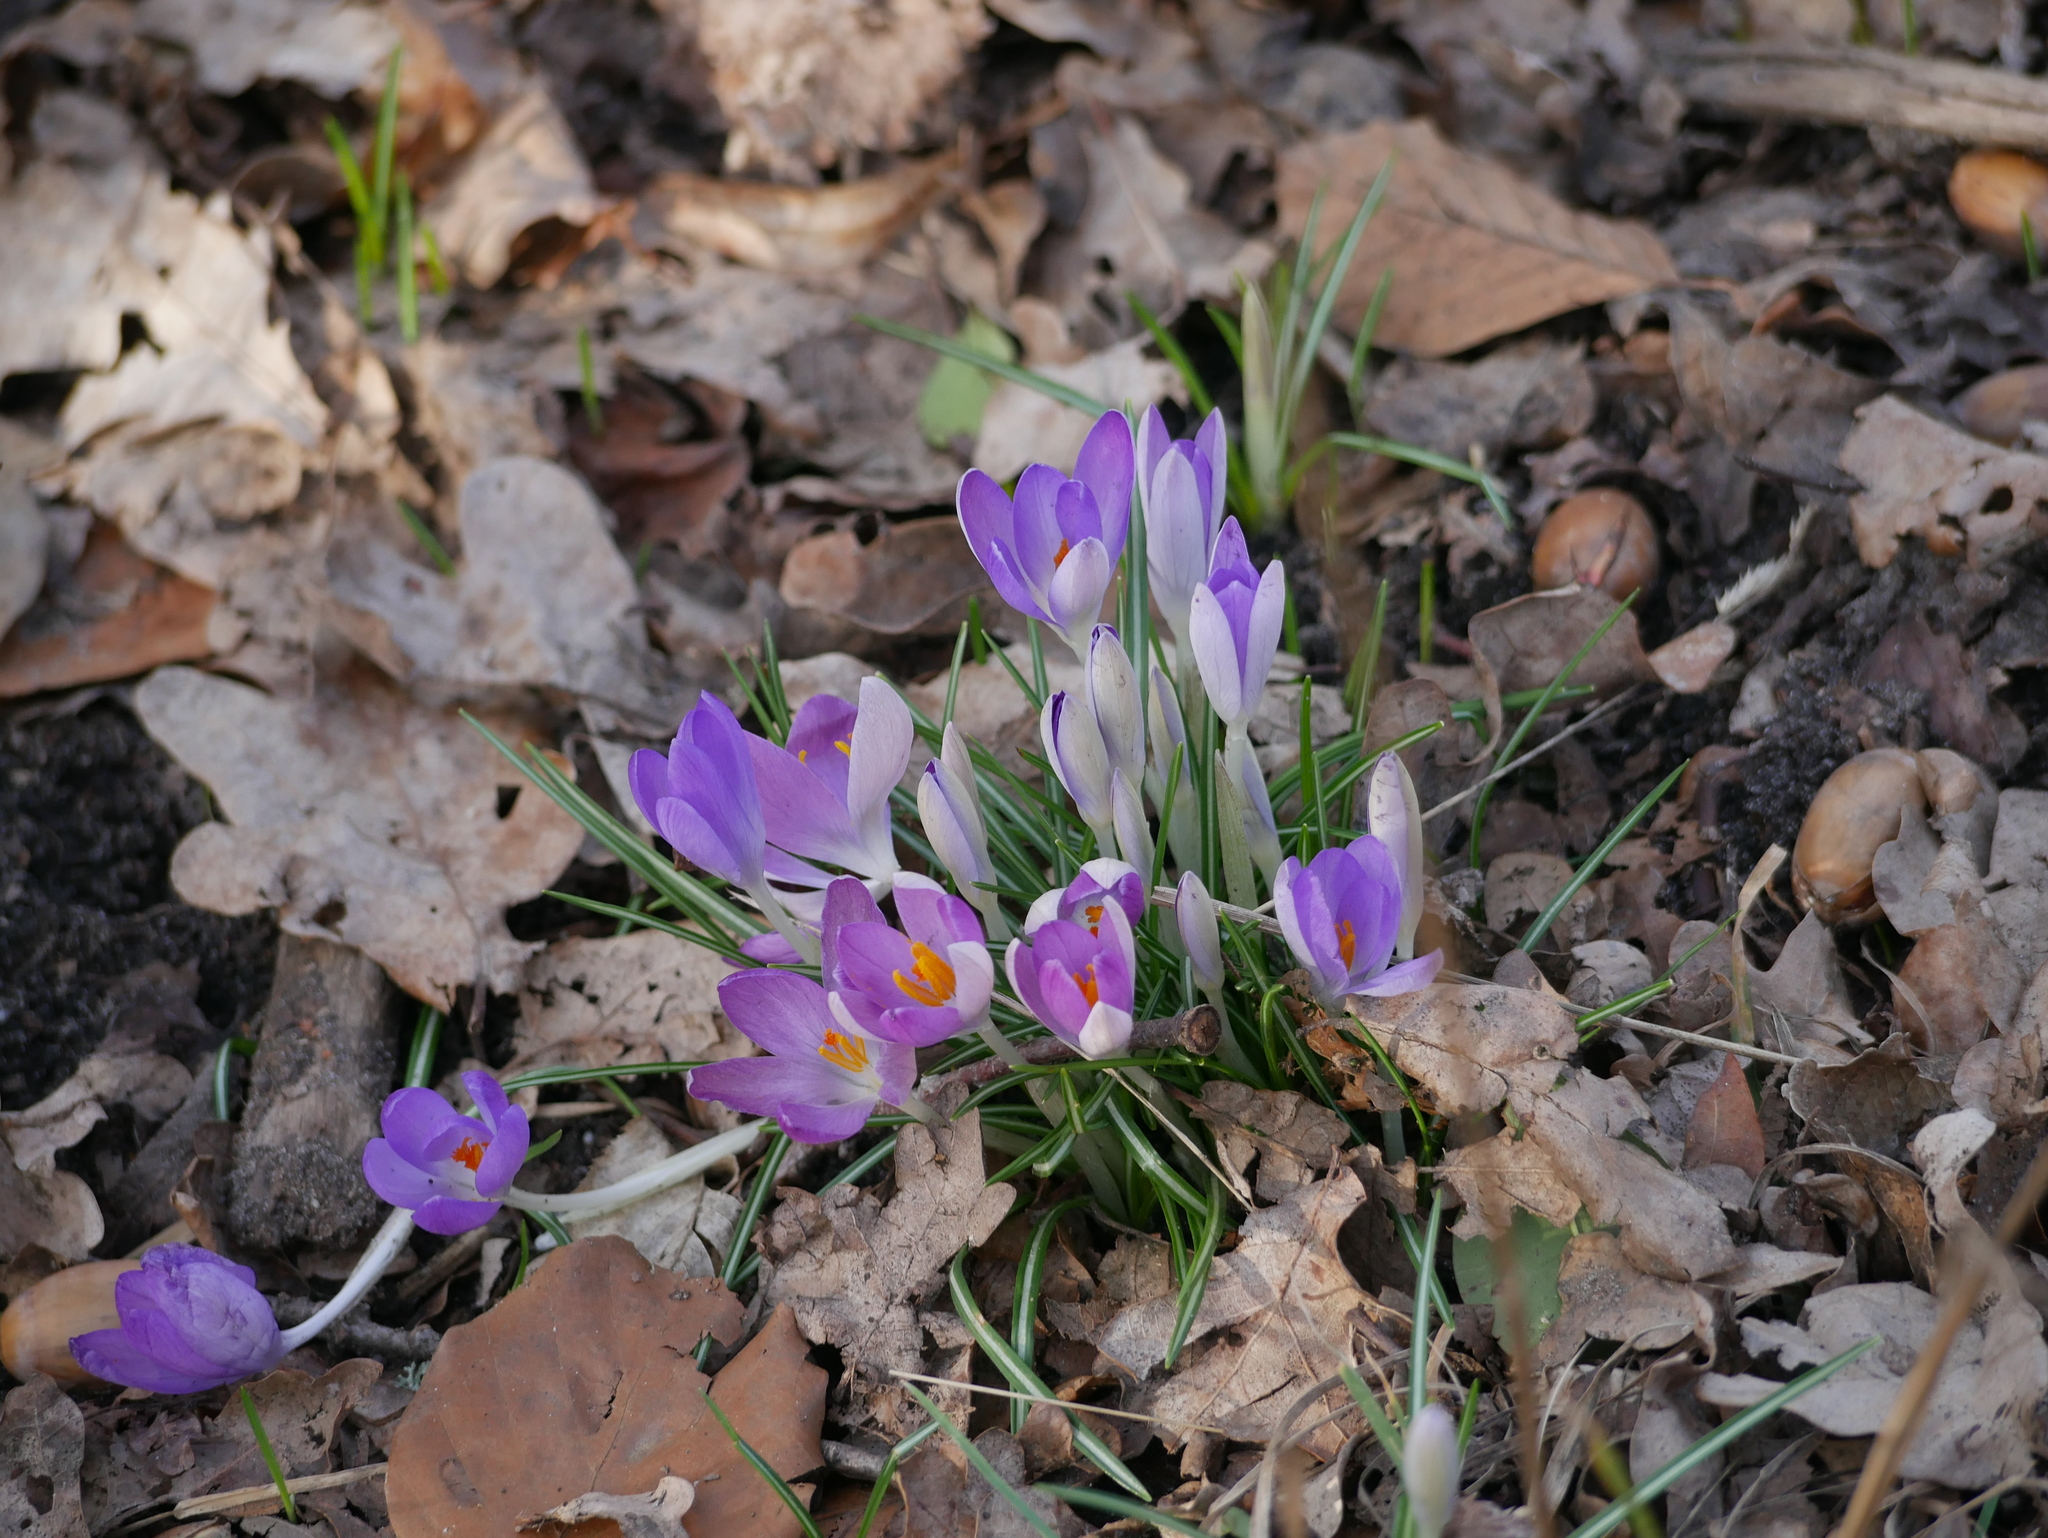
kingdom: Plantae
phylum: Tracheophyta
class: Liliopsida
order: Asparagales
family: Iridaceae
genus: Crocus
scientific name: Crocus tommasinianus
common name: Early crocus
